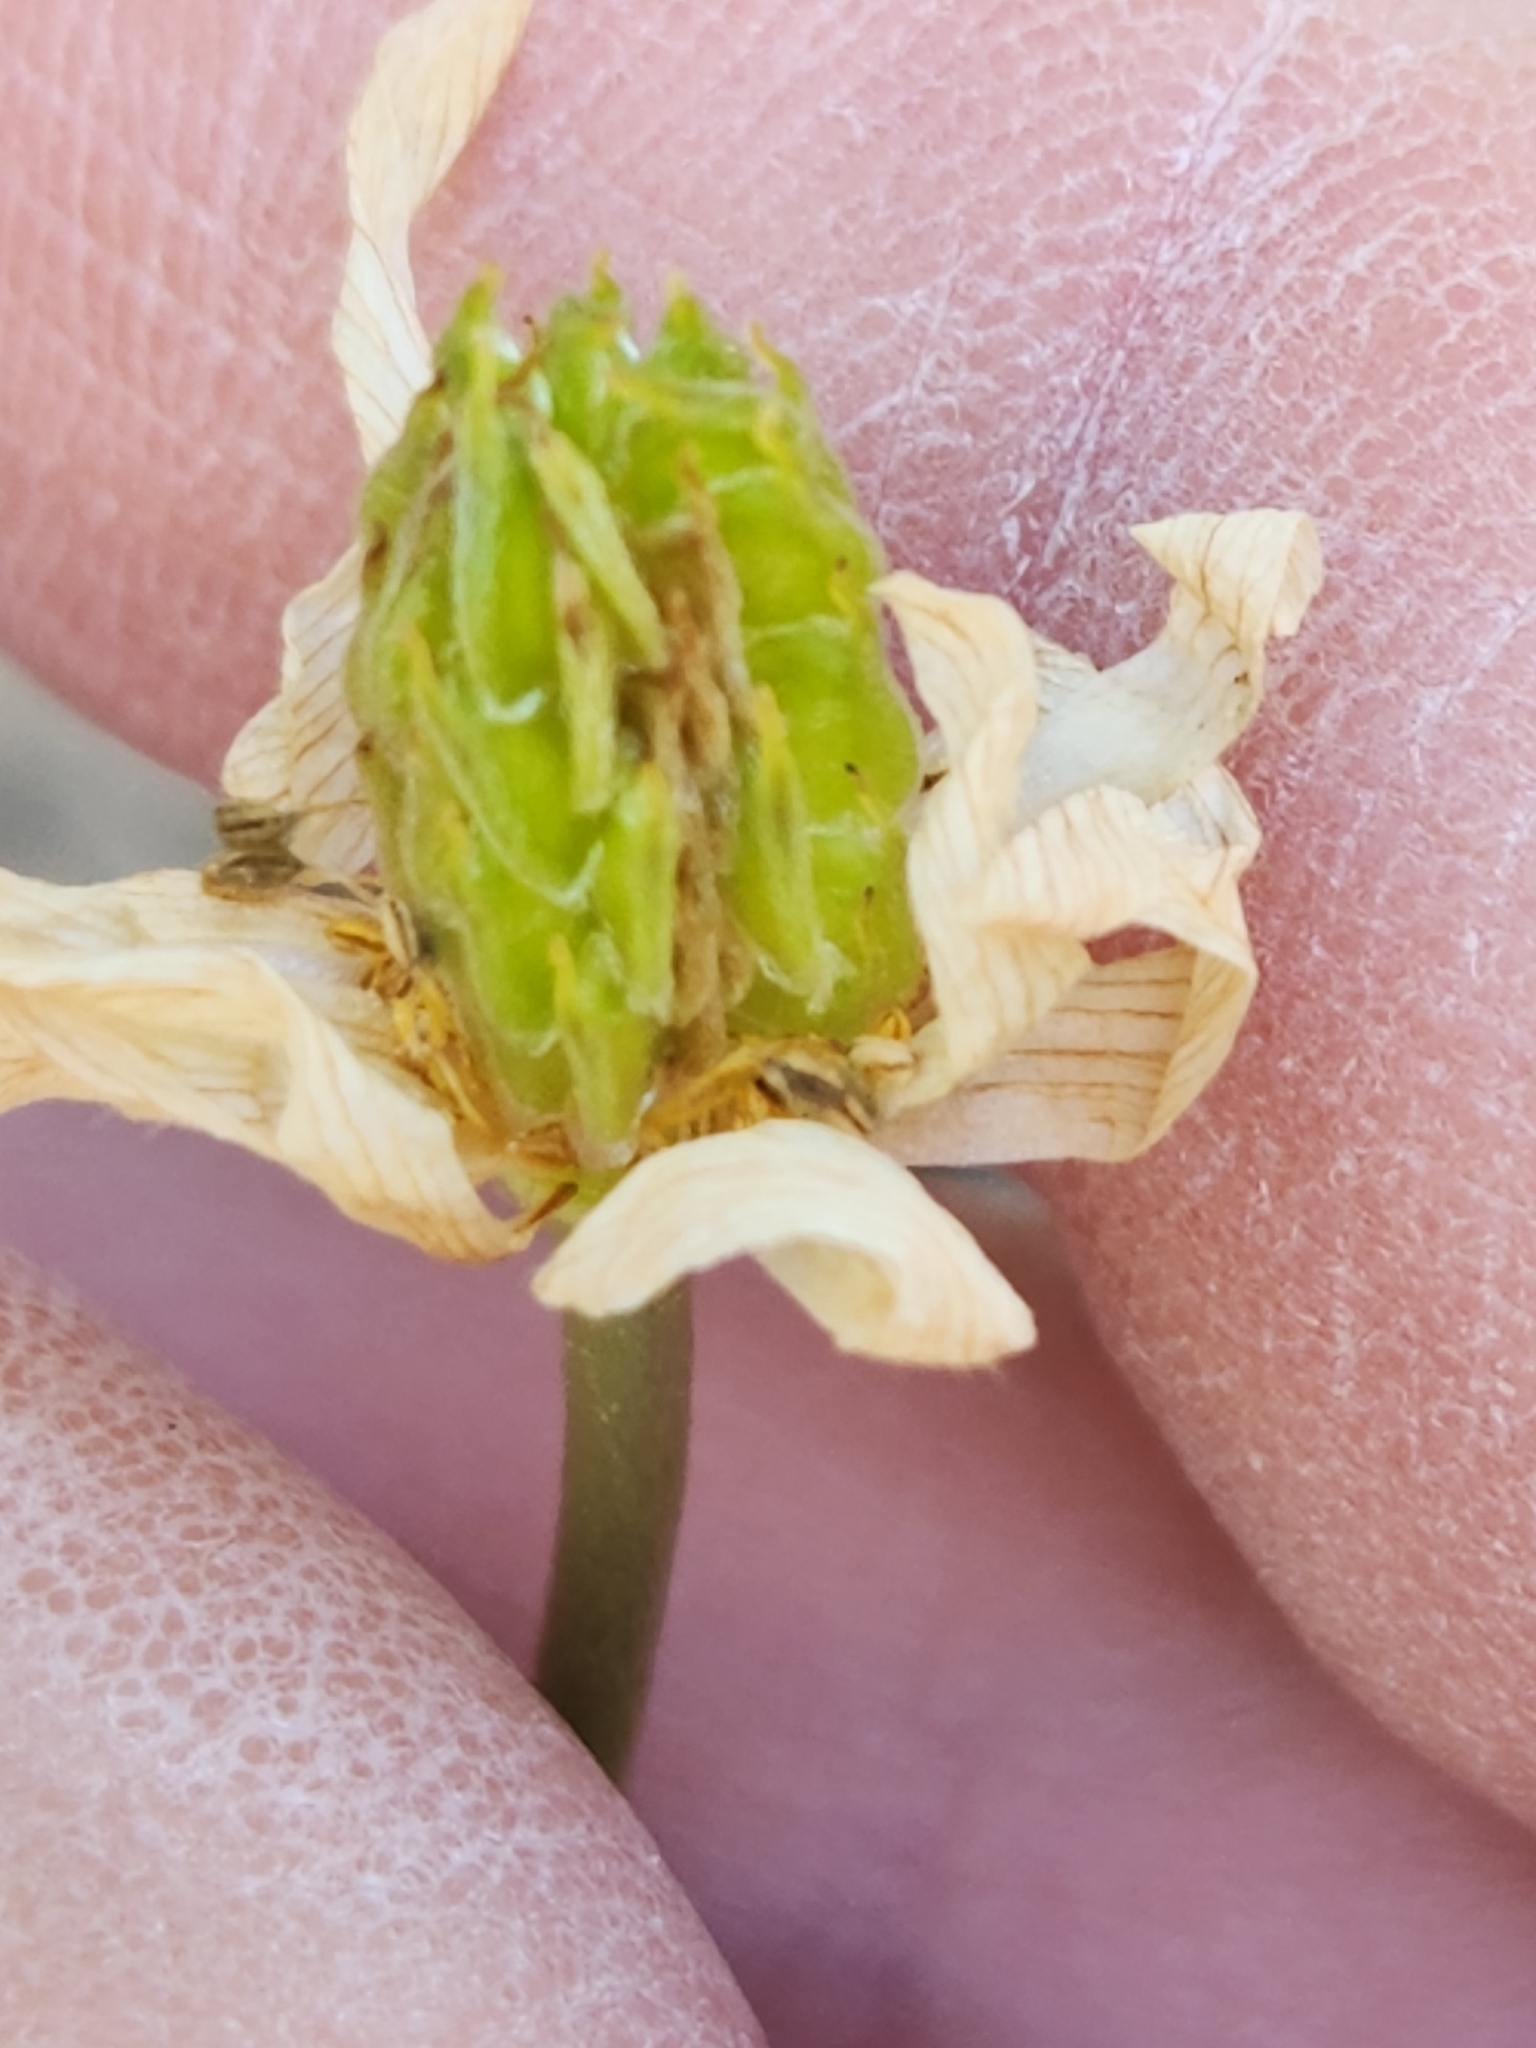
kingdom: Plantae
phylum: Tracheophyta
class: Magnoliopsida
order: Ranunculales
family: Ranunculaceae
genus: Anemone
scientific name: Anemone edwardsiana
